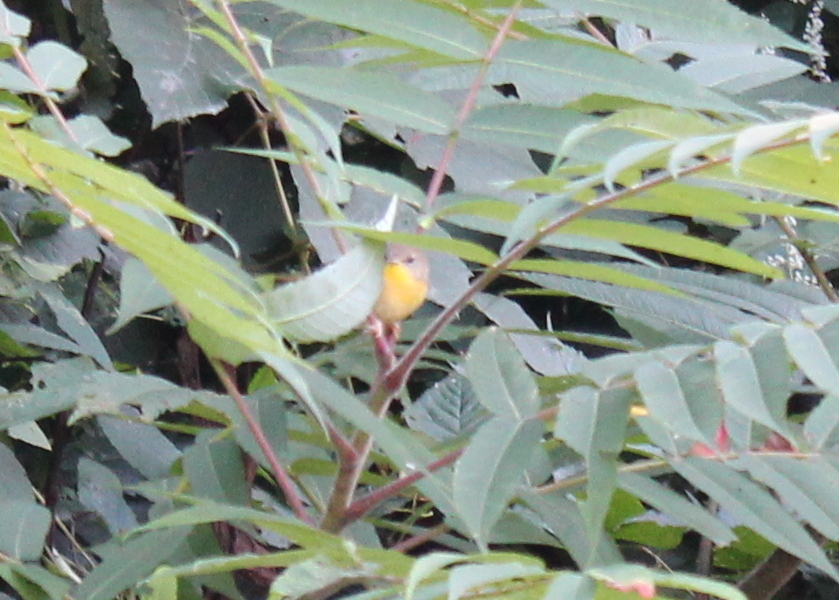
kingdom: Animalia
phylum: Chordata
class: Aves
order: Passeriformes
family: Parulidae
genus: Geothlypis
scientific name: Geothlypis trichas
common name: Common yellowthroat
